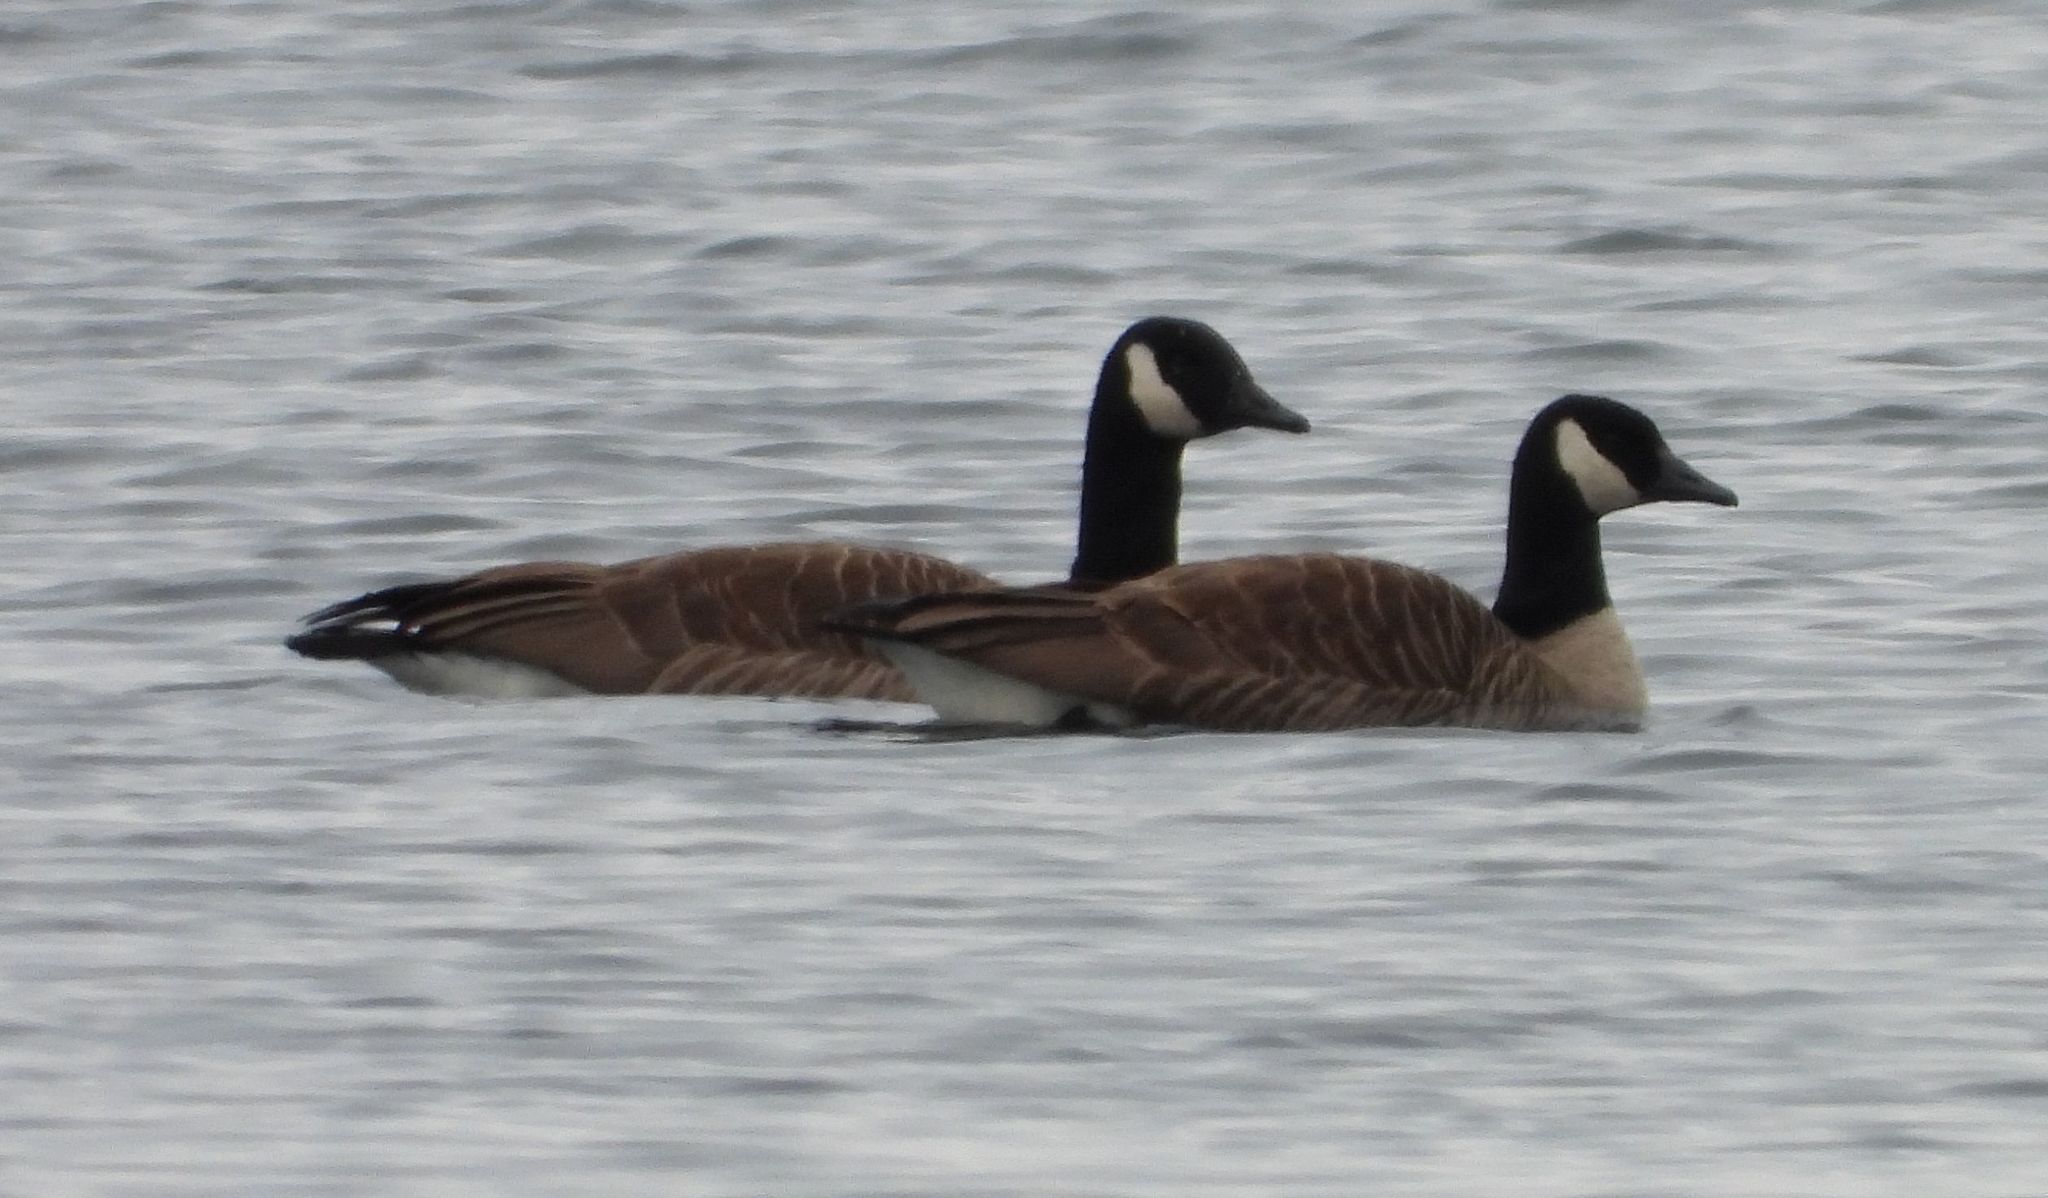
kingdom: Animalia
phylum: Chordata
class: Aves
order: Anseriformes
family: Anatidae
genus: Branta
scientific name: Branta canadensis
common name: Canada goose
